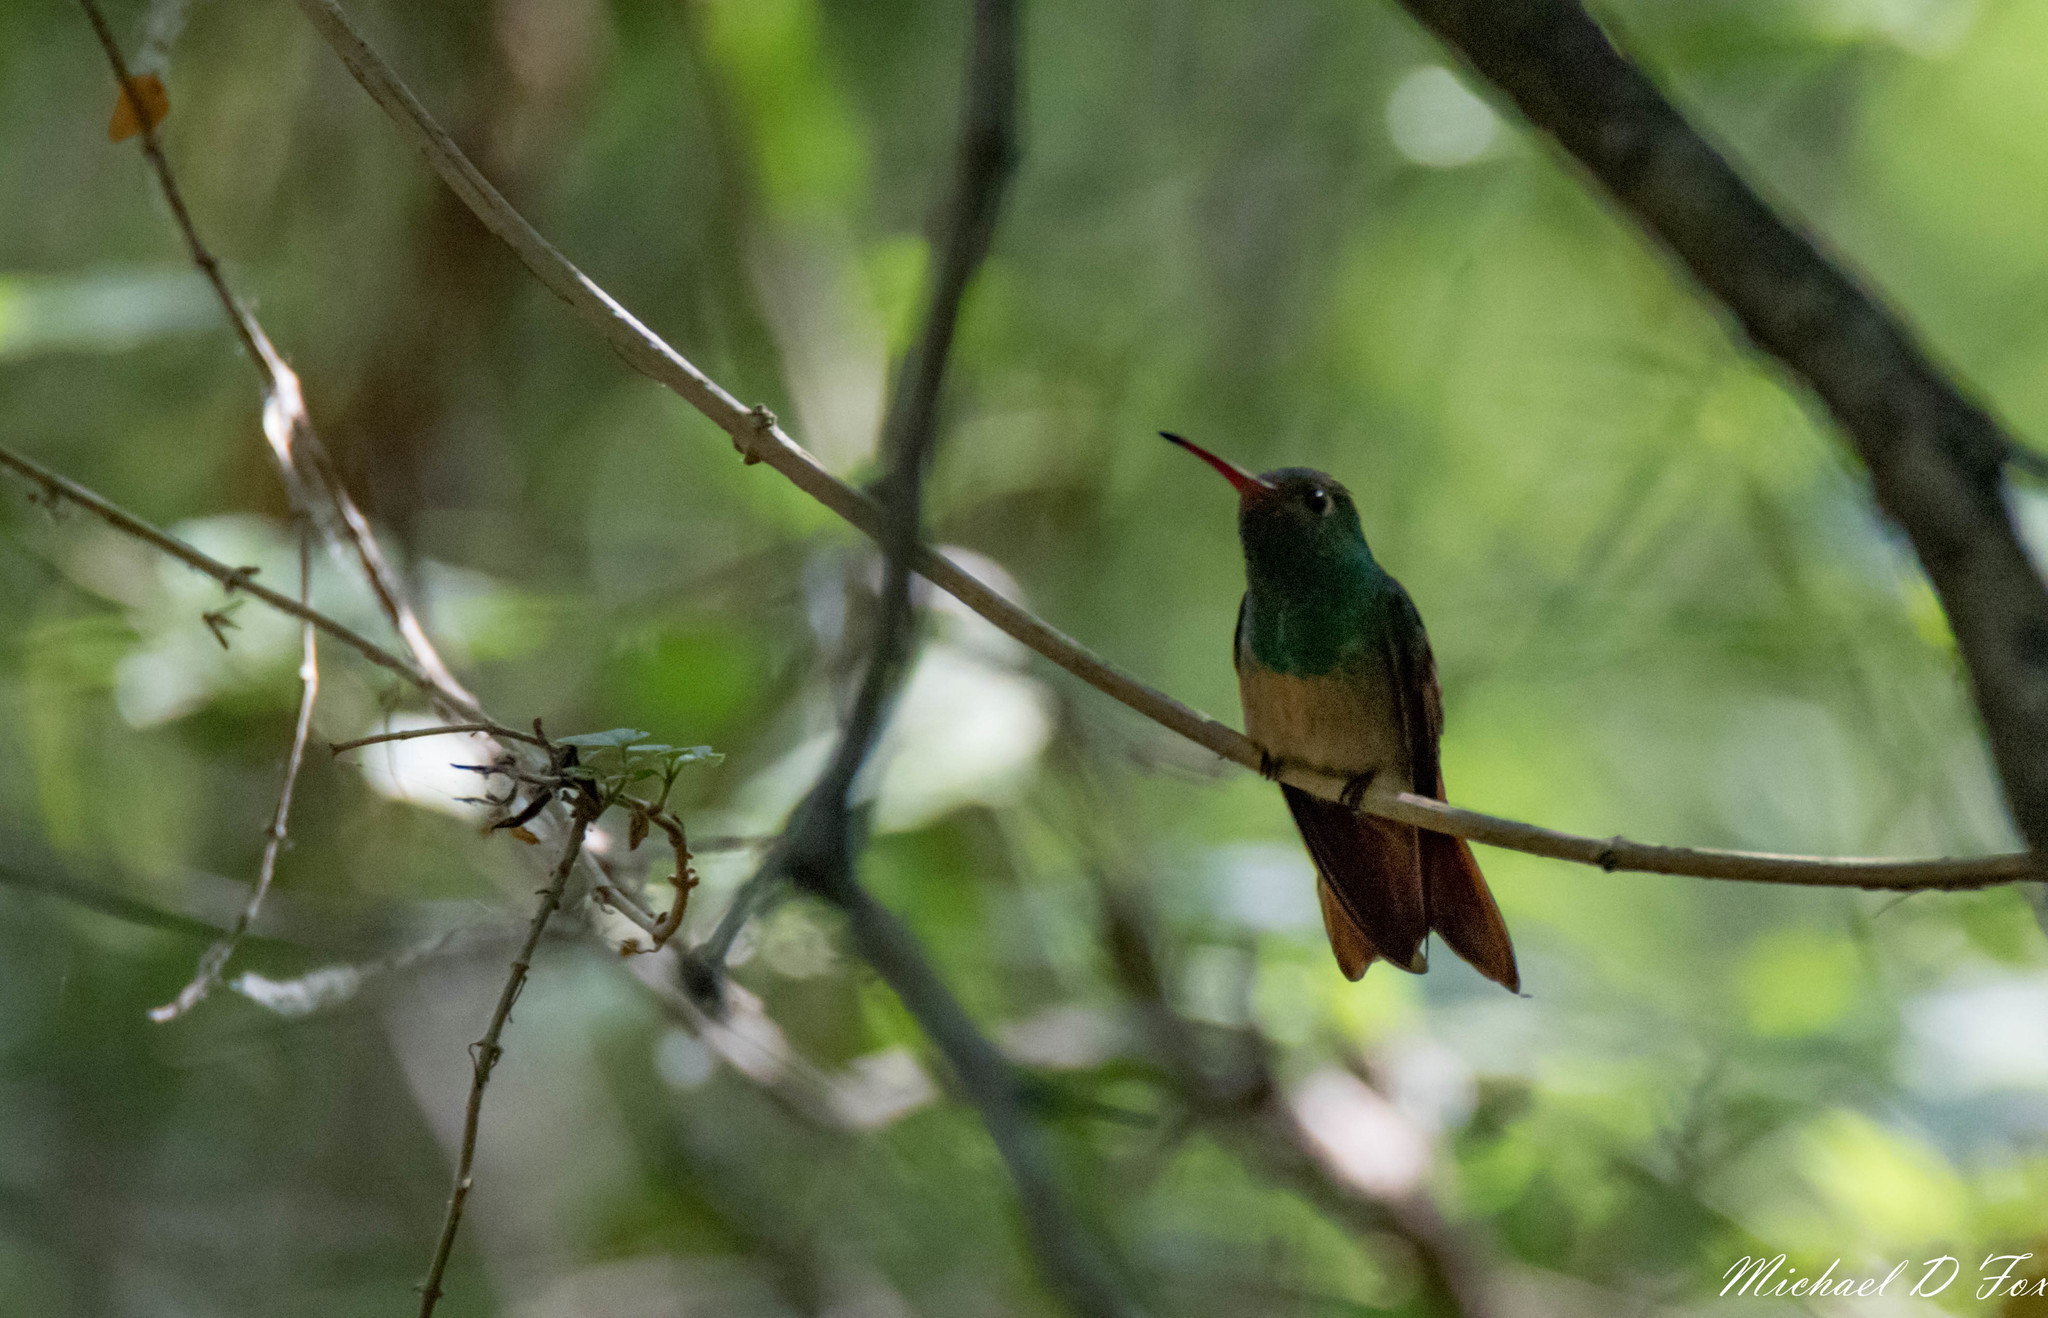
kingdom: Animalia
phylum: Chordata
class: Aves
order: Apodiformes
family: Trochilidae
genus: Amazilia
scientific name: Amazilia yucatanensis
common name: Buff-bellied hummingbird
